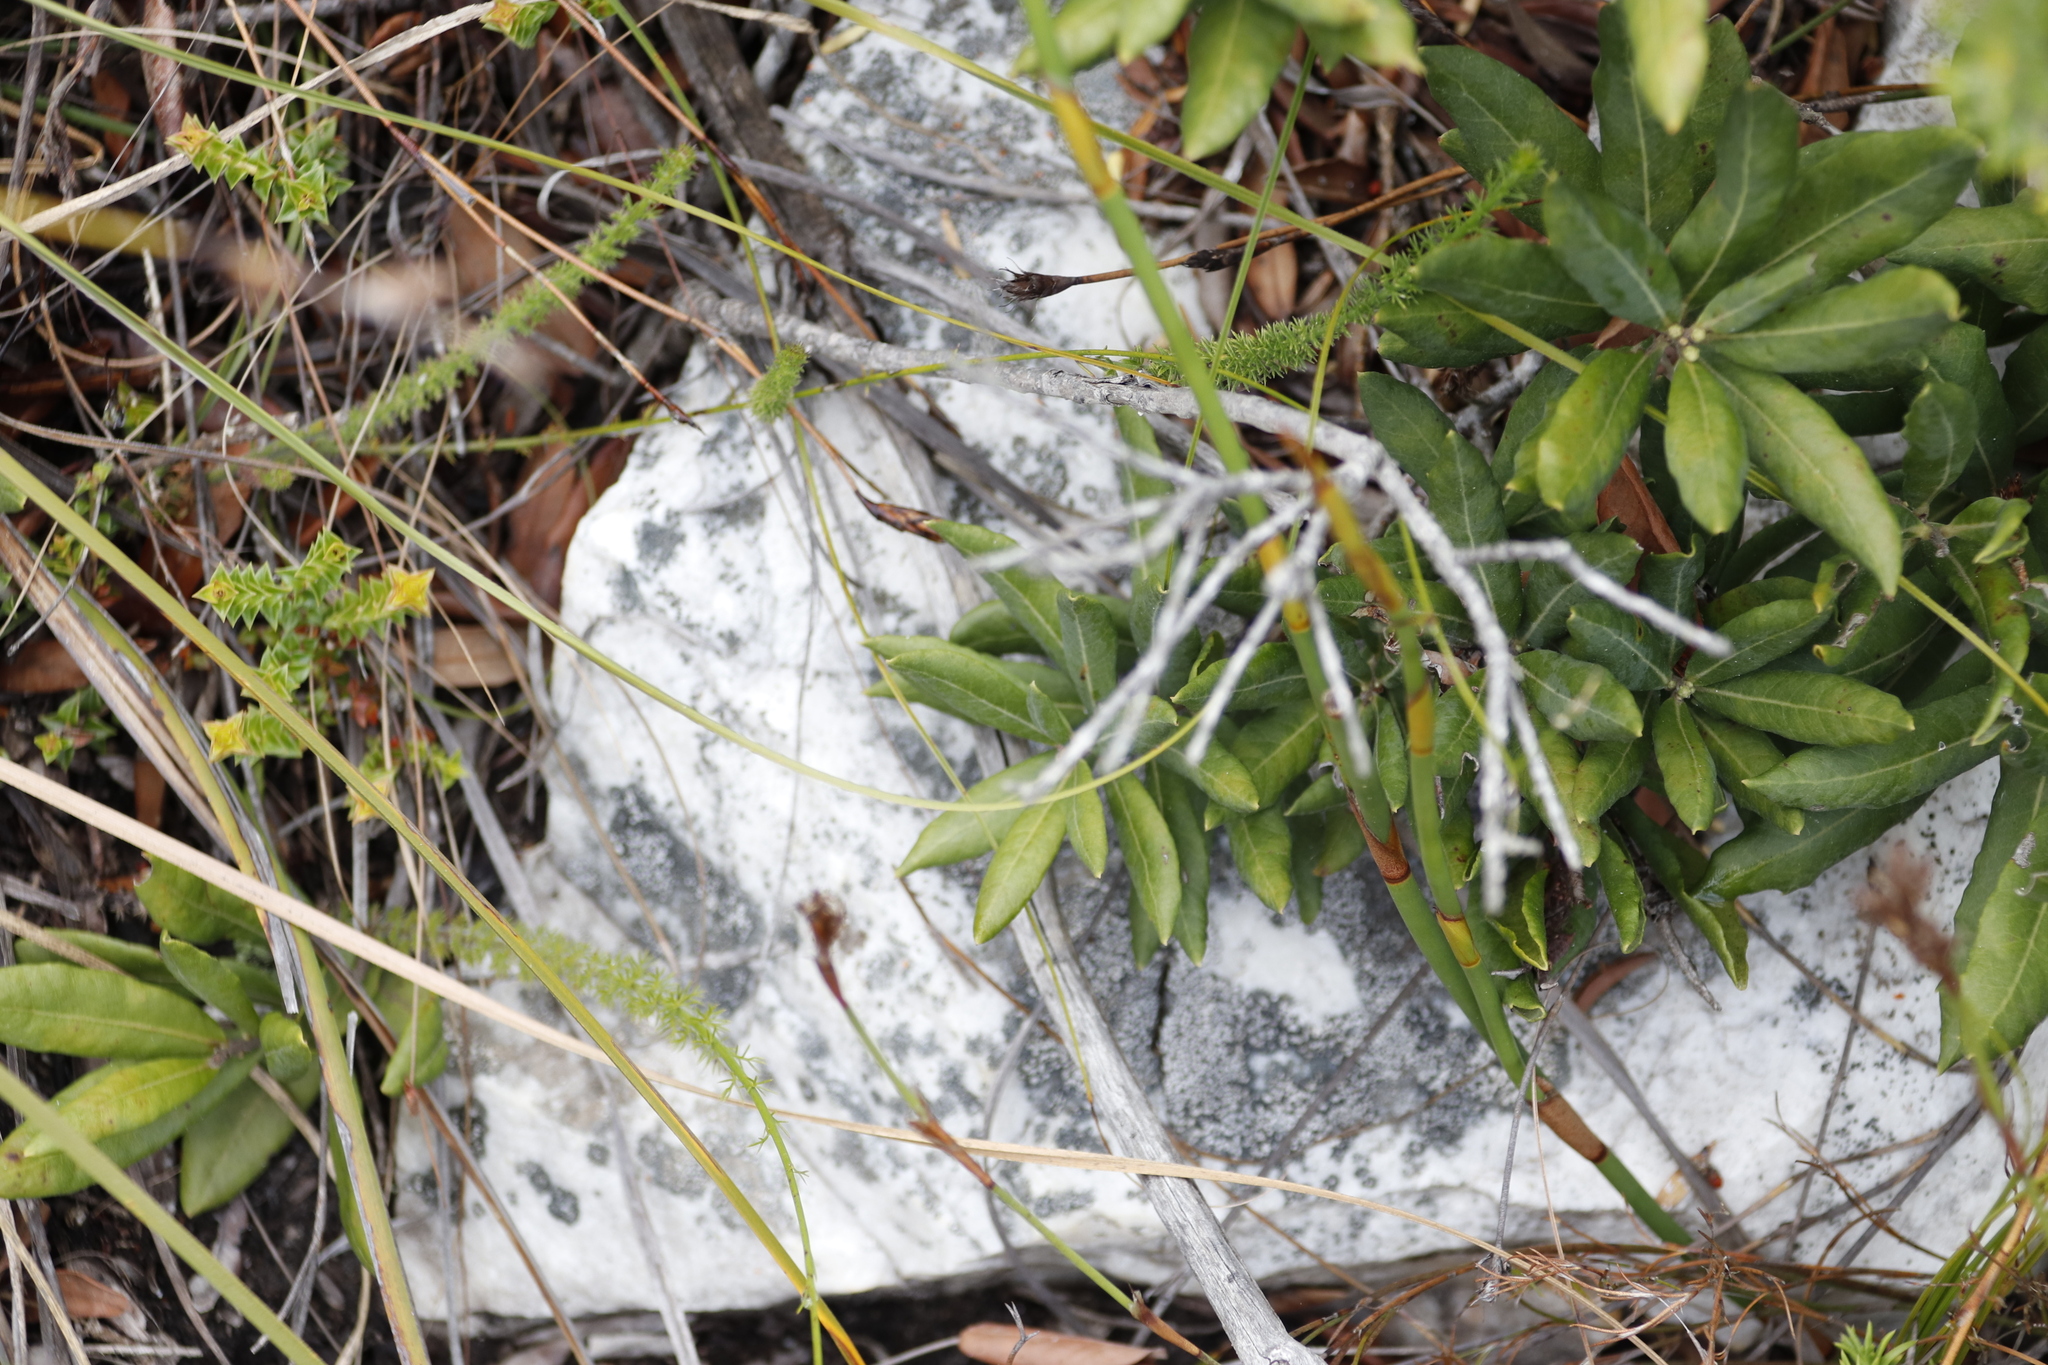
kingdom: Plantae
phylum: Tracheophyta
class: Magnoliopsida
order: Fagales
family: Myricaceae
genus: Morella
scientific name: Morella humilis
